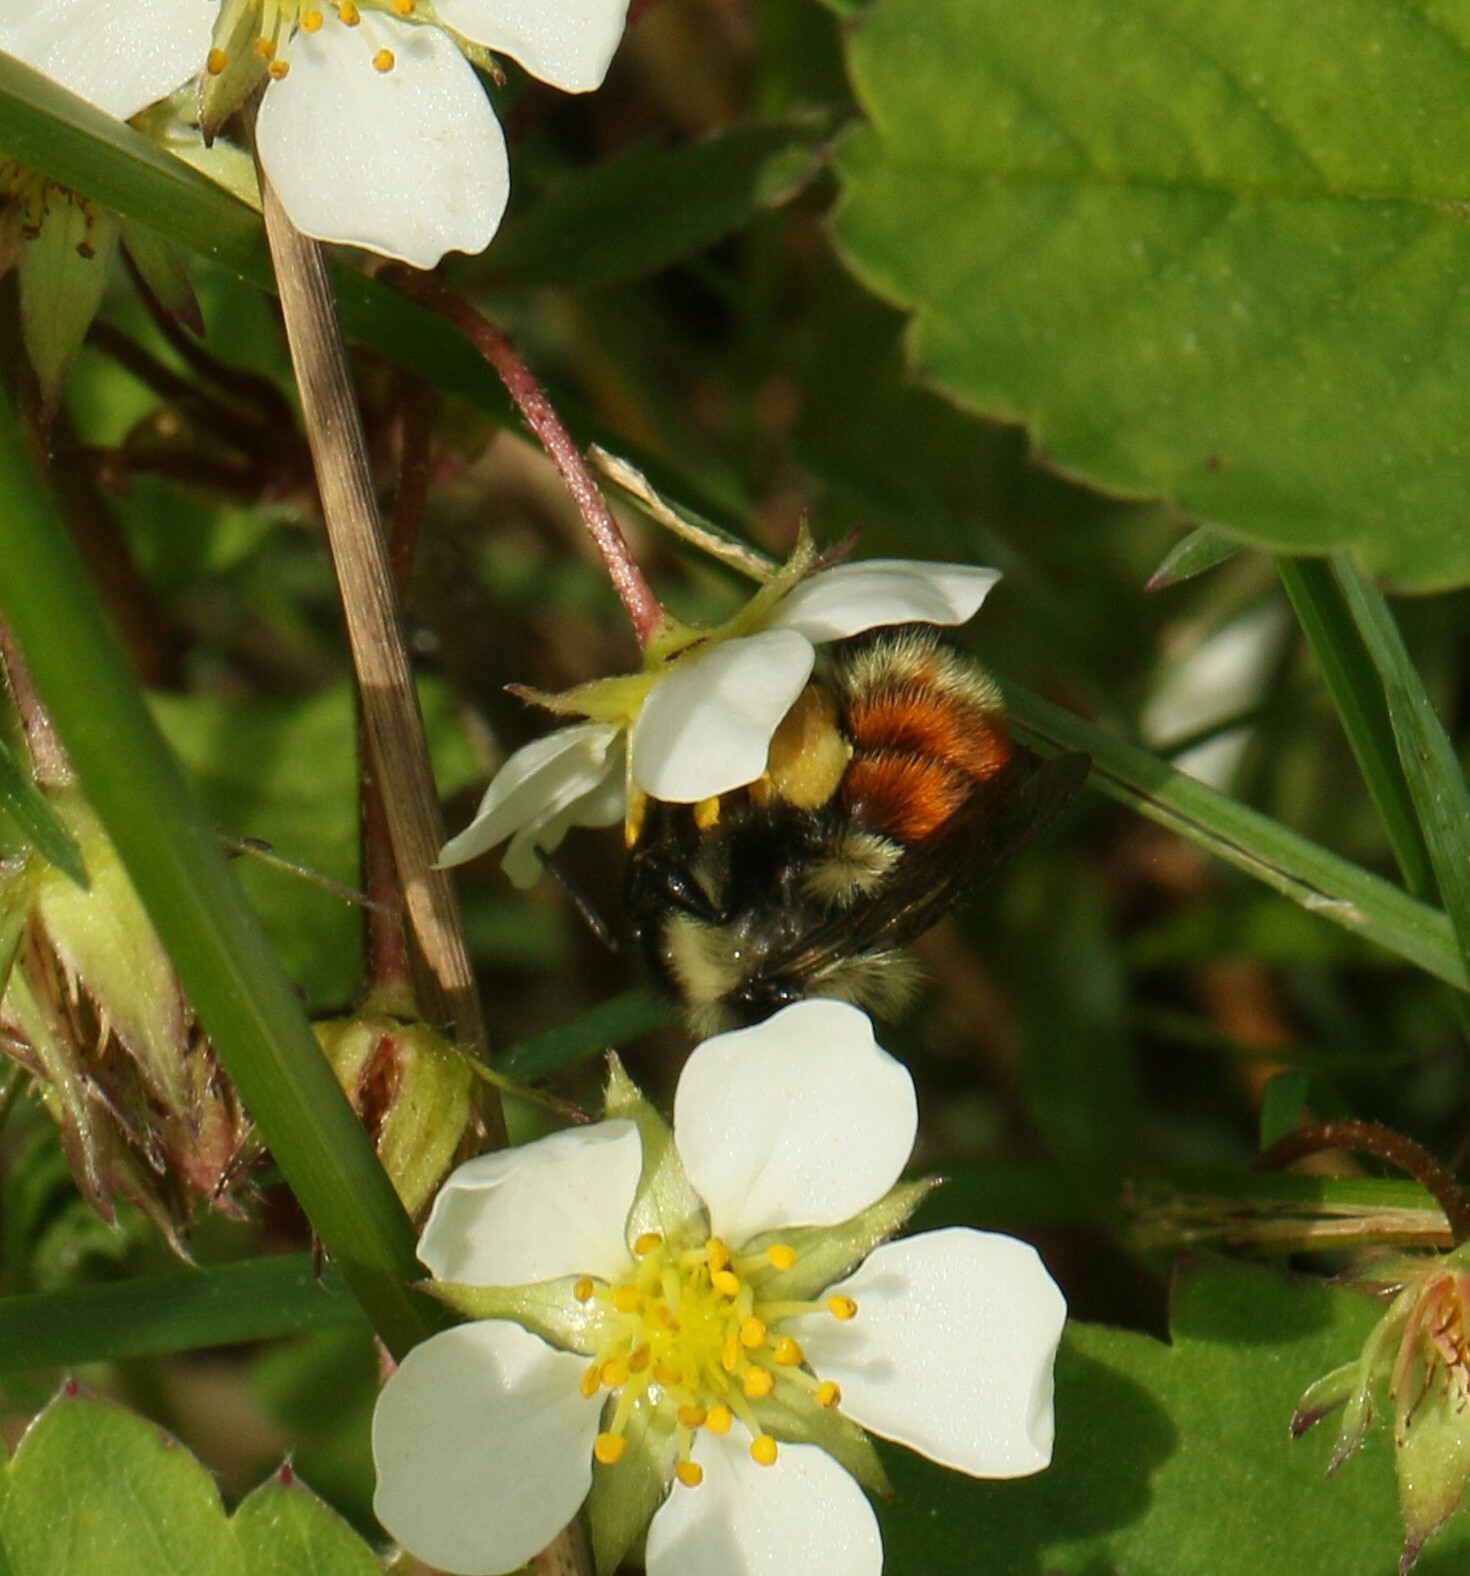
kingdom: Animalia
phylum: Arthropoda
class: Insecta
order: Hymenoptera
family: Apidae
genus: Bombus
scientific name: Bombus ternarius
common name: Tri-colored bumble bee
